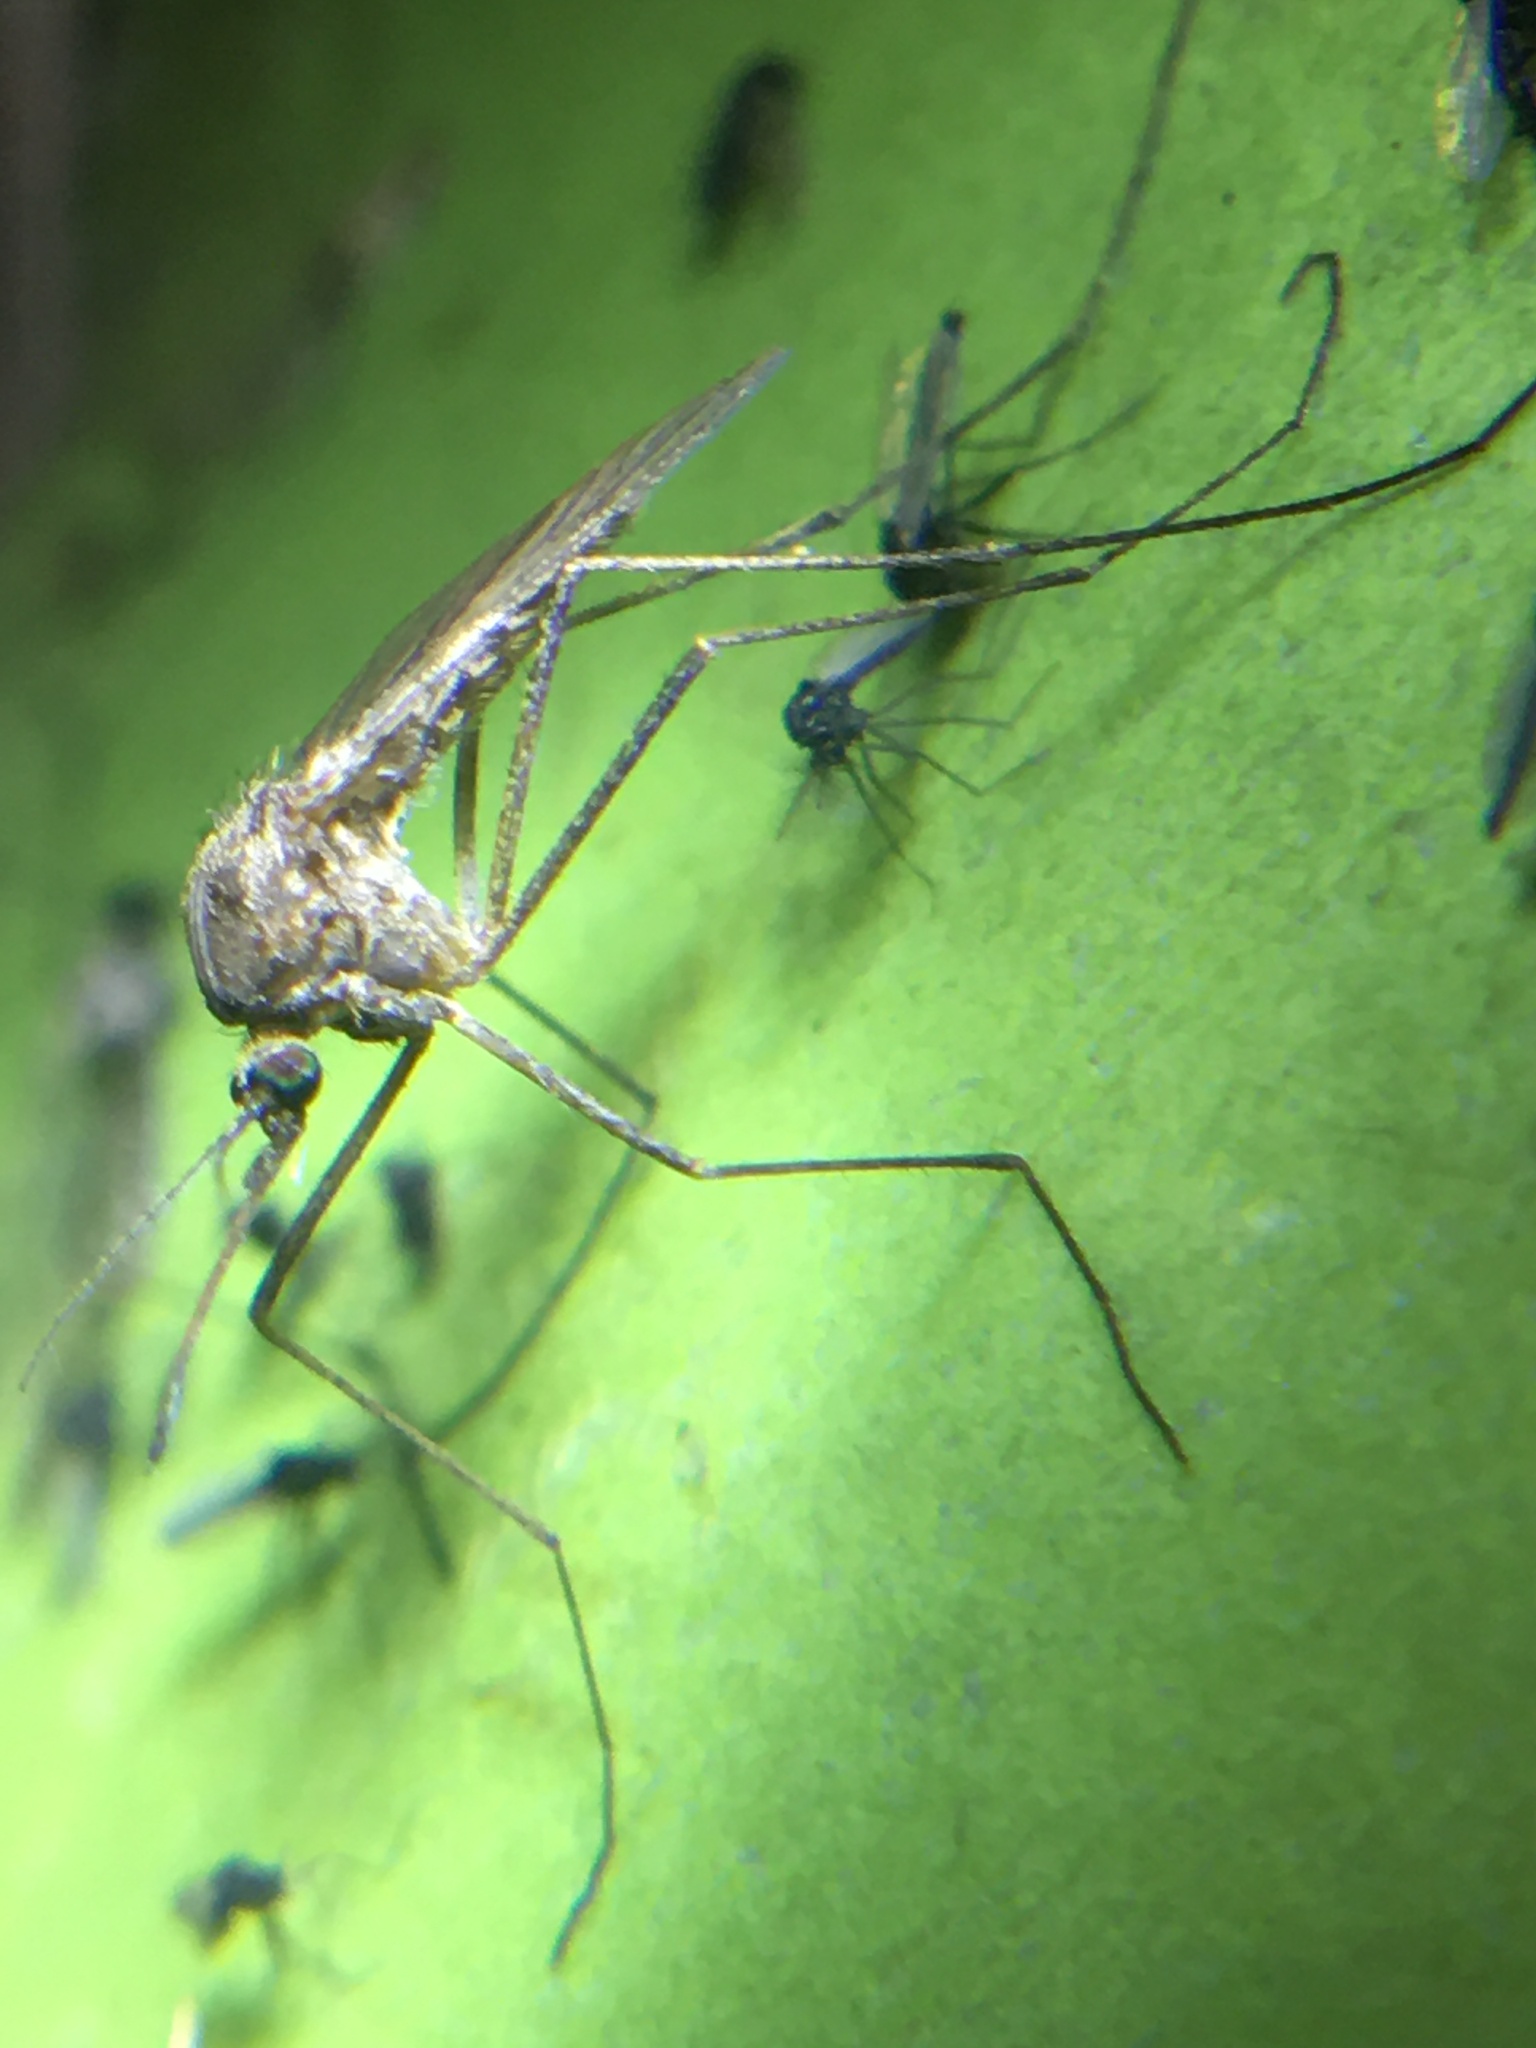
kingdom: Animalia
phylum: Arthropoda
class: Insecta
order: Diptera
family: Culicidae
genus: Culiseta
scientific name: Culiseta inornata
